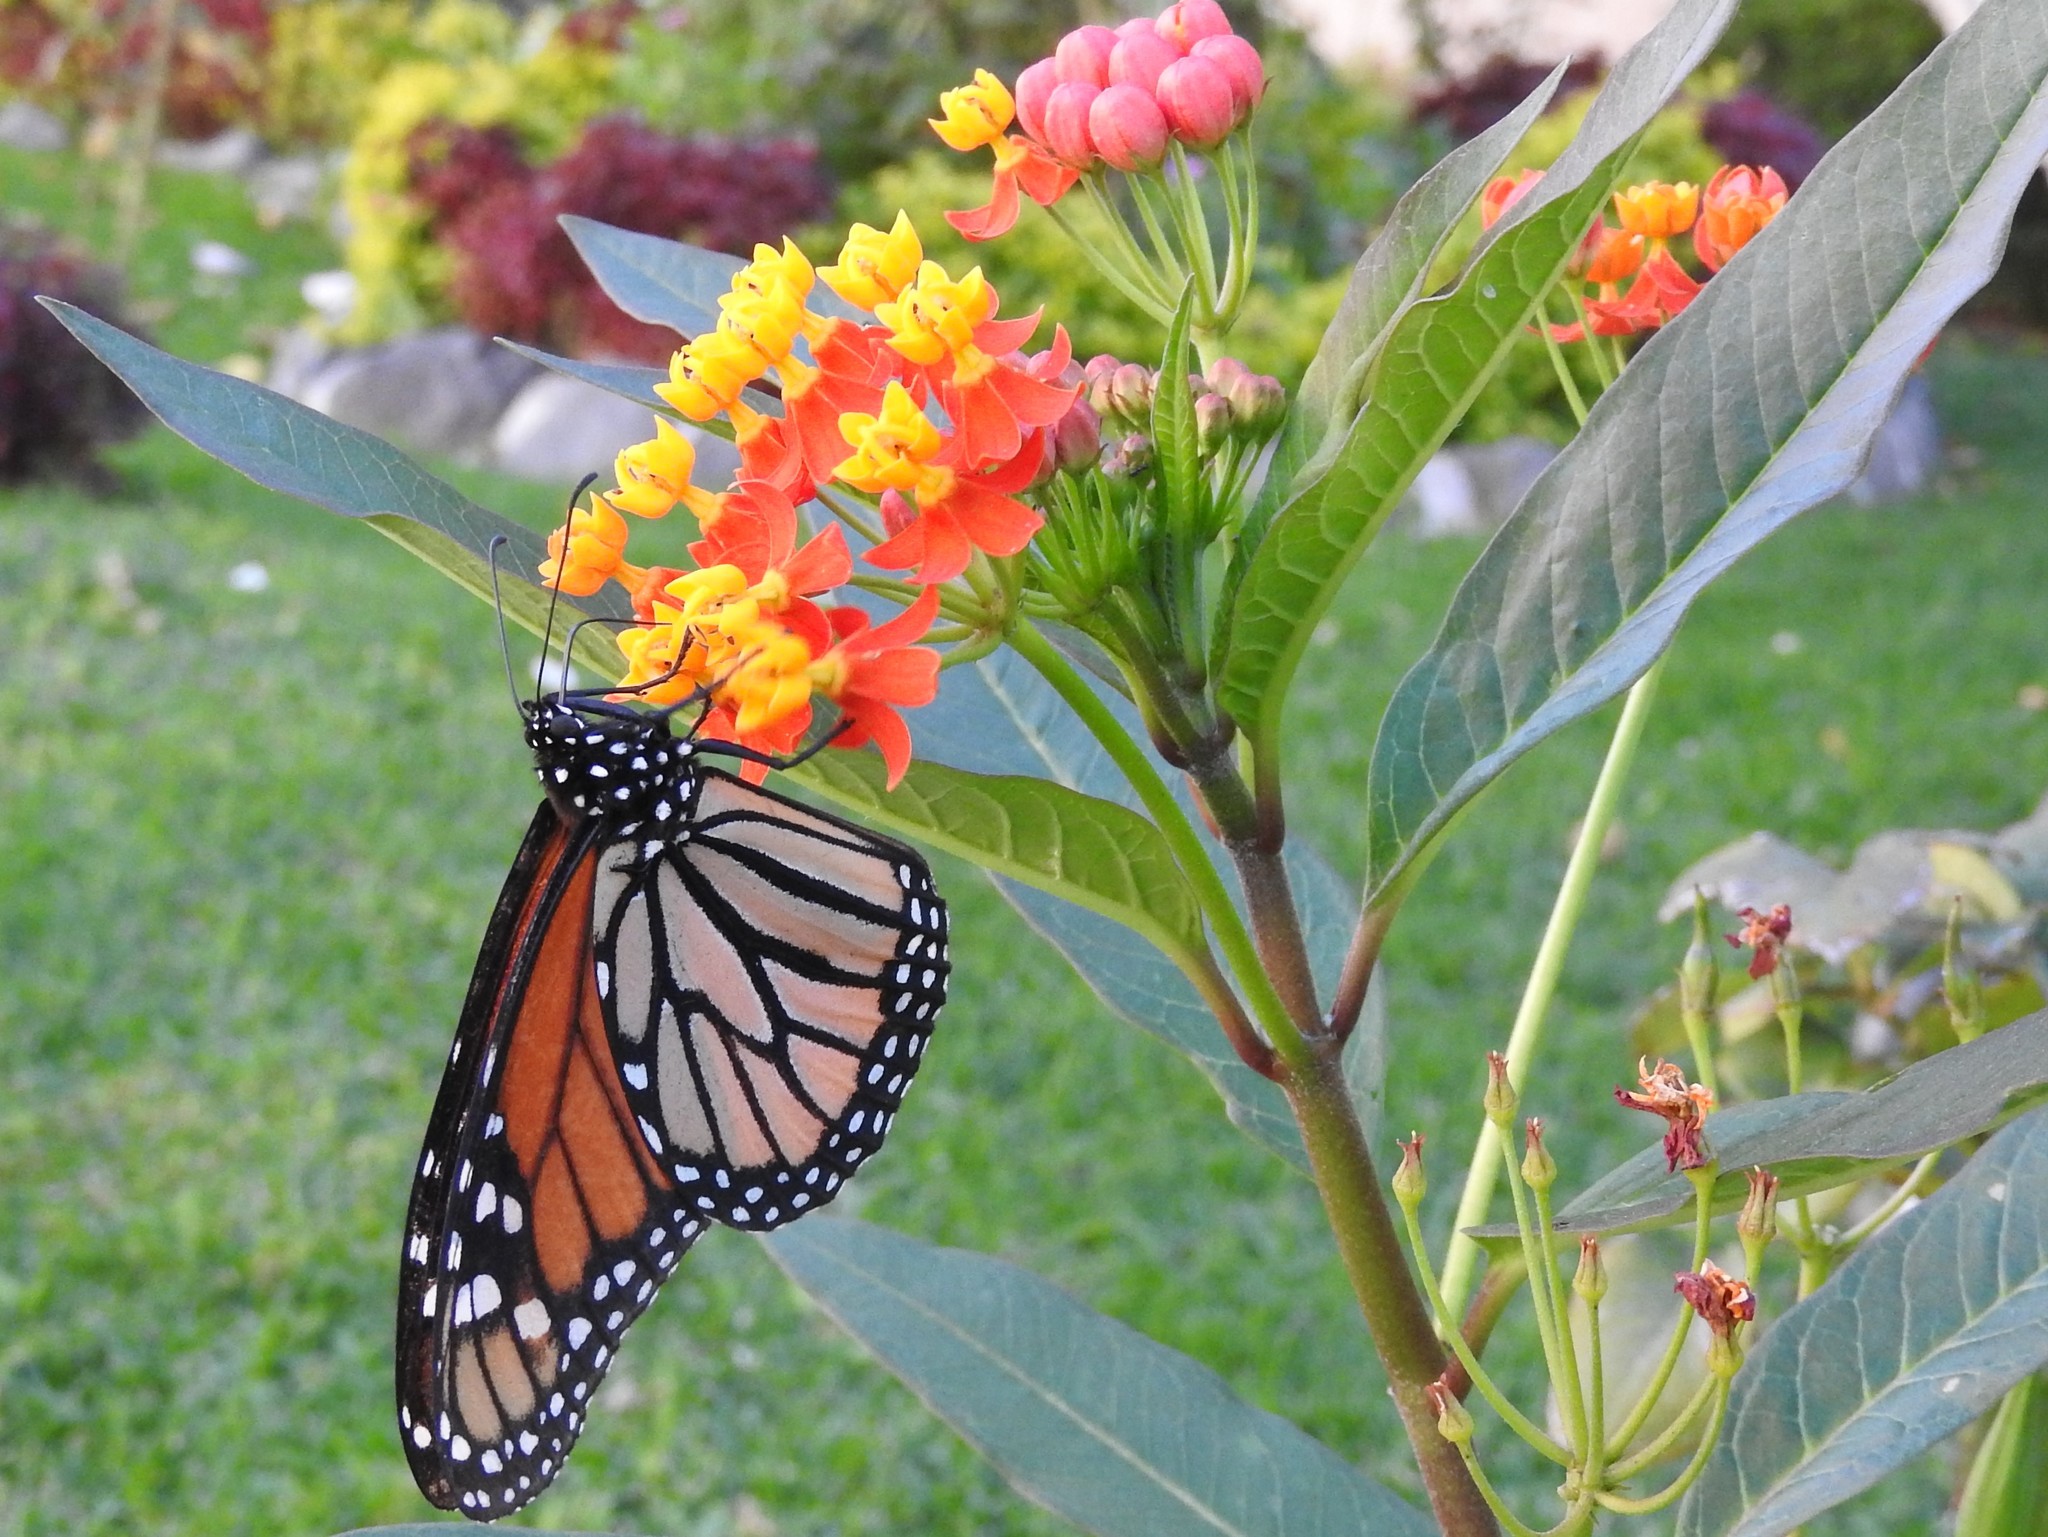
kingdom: Animalia
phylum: Arthropoda
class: Insecta
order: Lepidoptera
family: Nymphalidae
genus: Danaus
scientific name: Danaus plexippus
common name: Monarch
